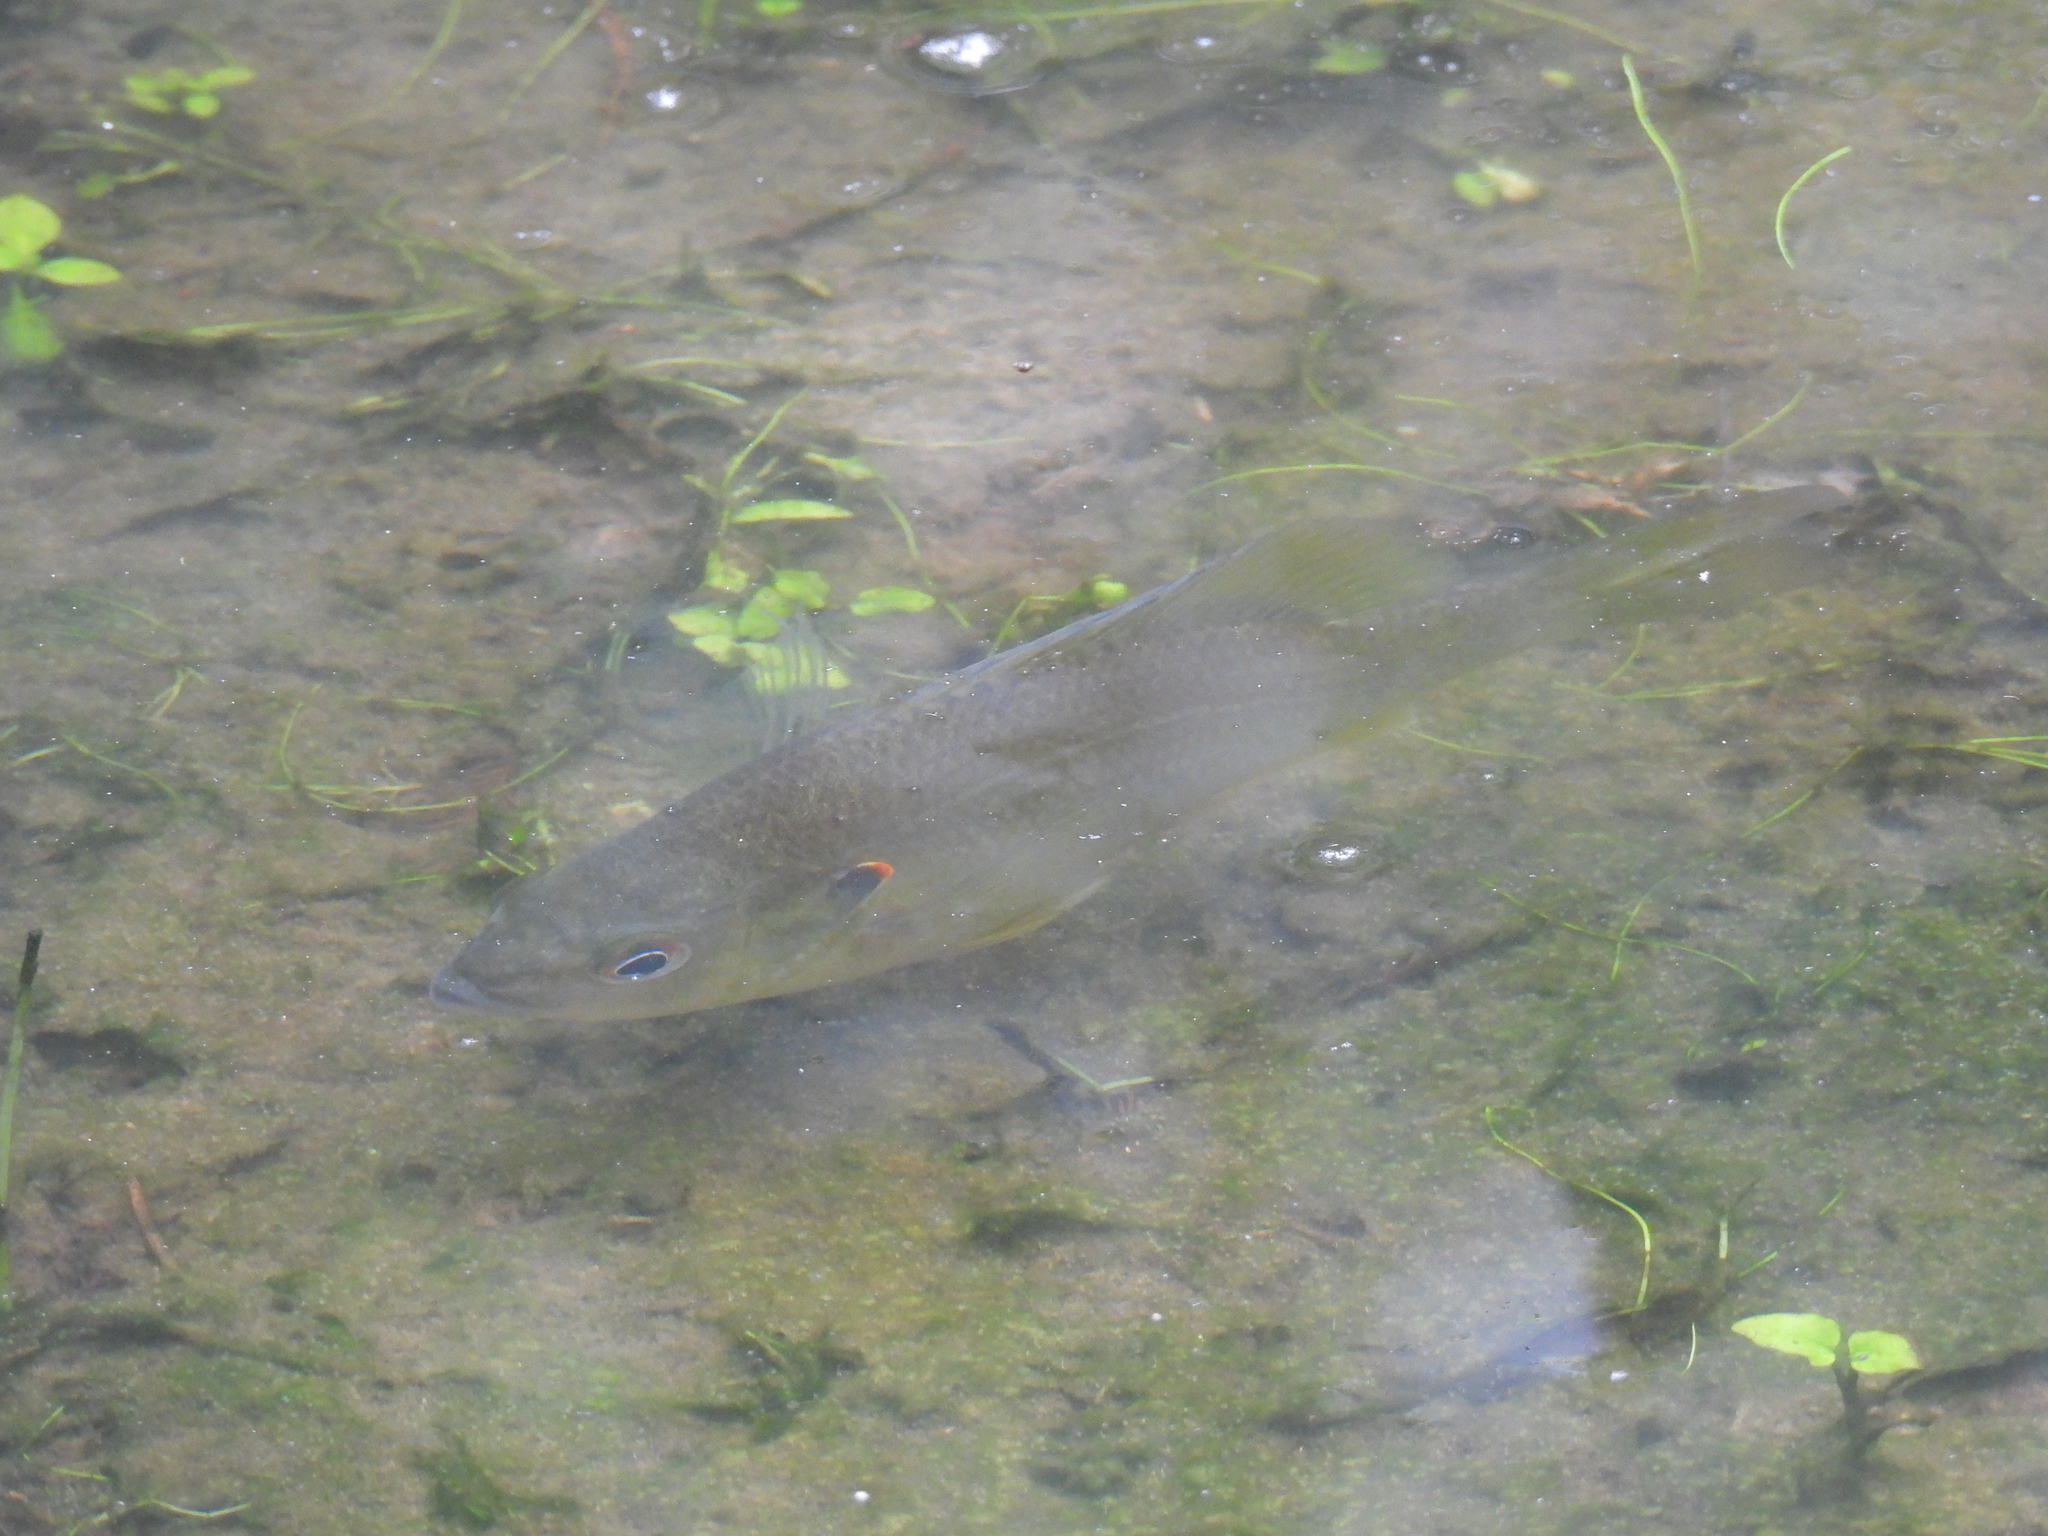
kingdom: Animalia
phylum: Chordata
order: Perciformes
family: Centrarchidae
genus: Lepomis
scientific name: Lepomis microlophus
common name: Redear sunfish
